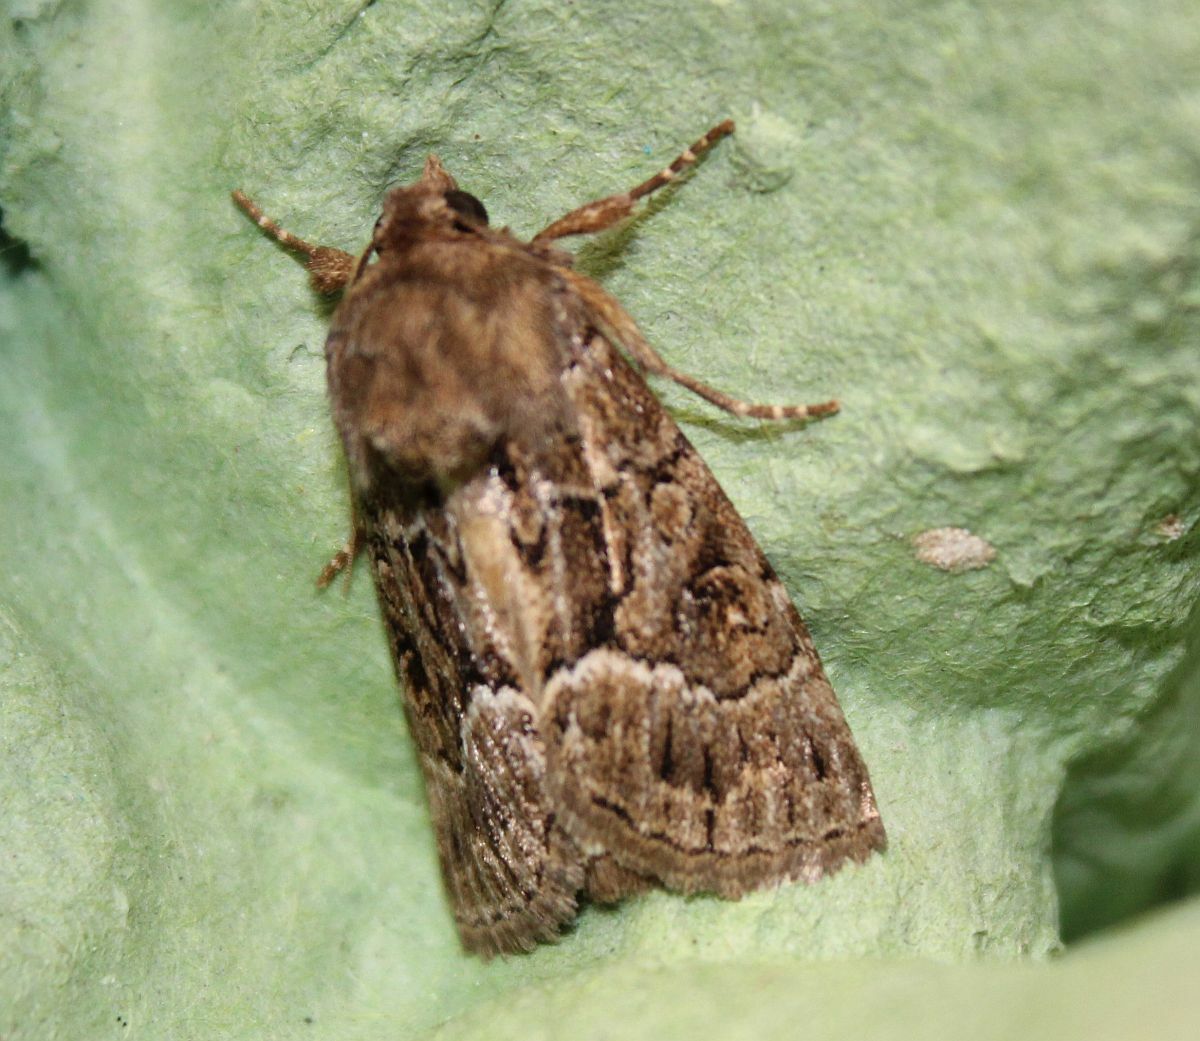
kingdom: Animalia
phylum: Arthropoda
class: Insecta
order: Lepidoptera
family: Noctuidae
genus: Thalpophila
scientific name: Thalpophila matura
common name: Straw underwing
